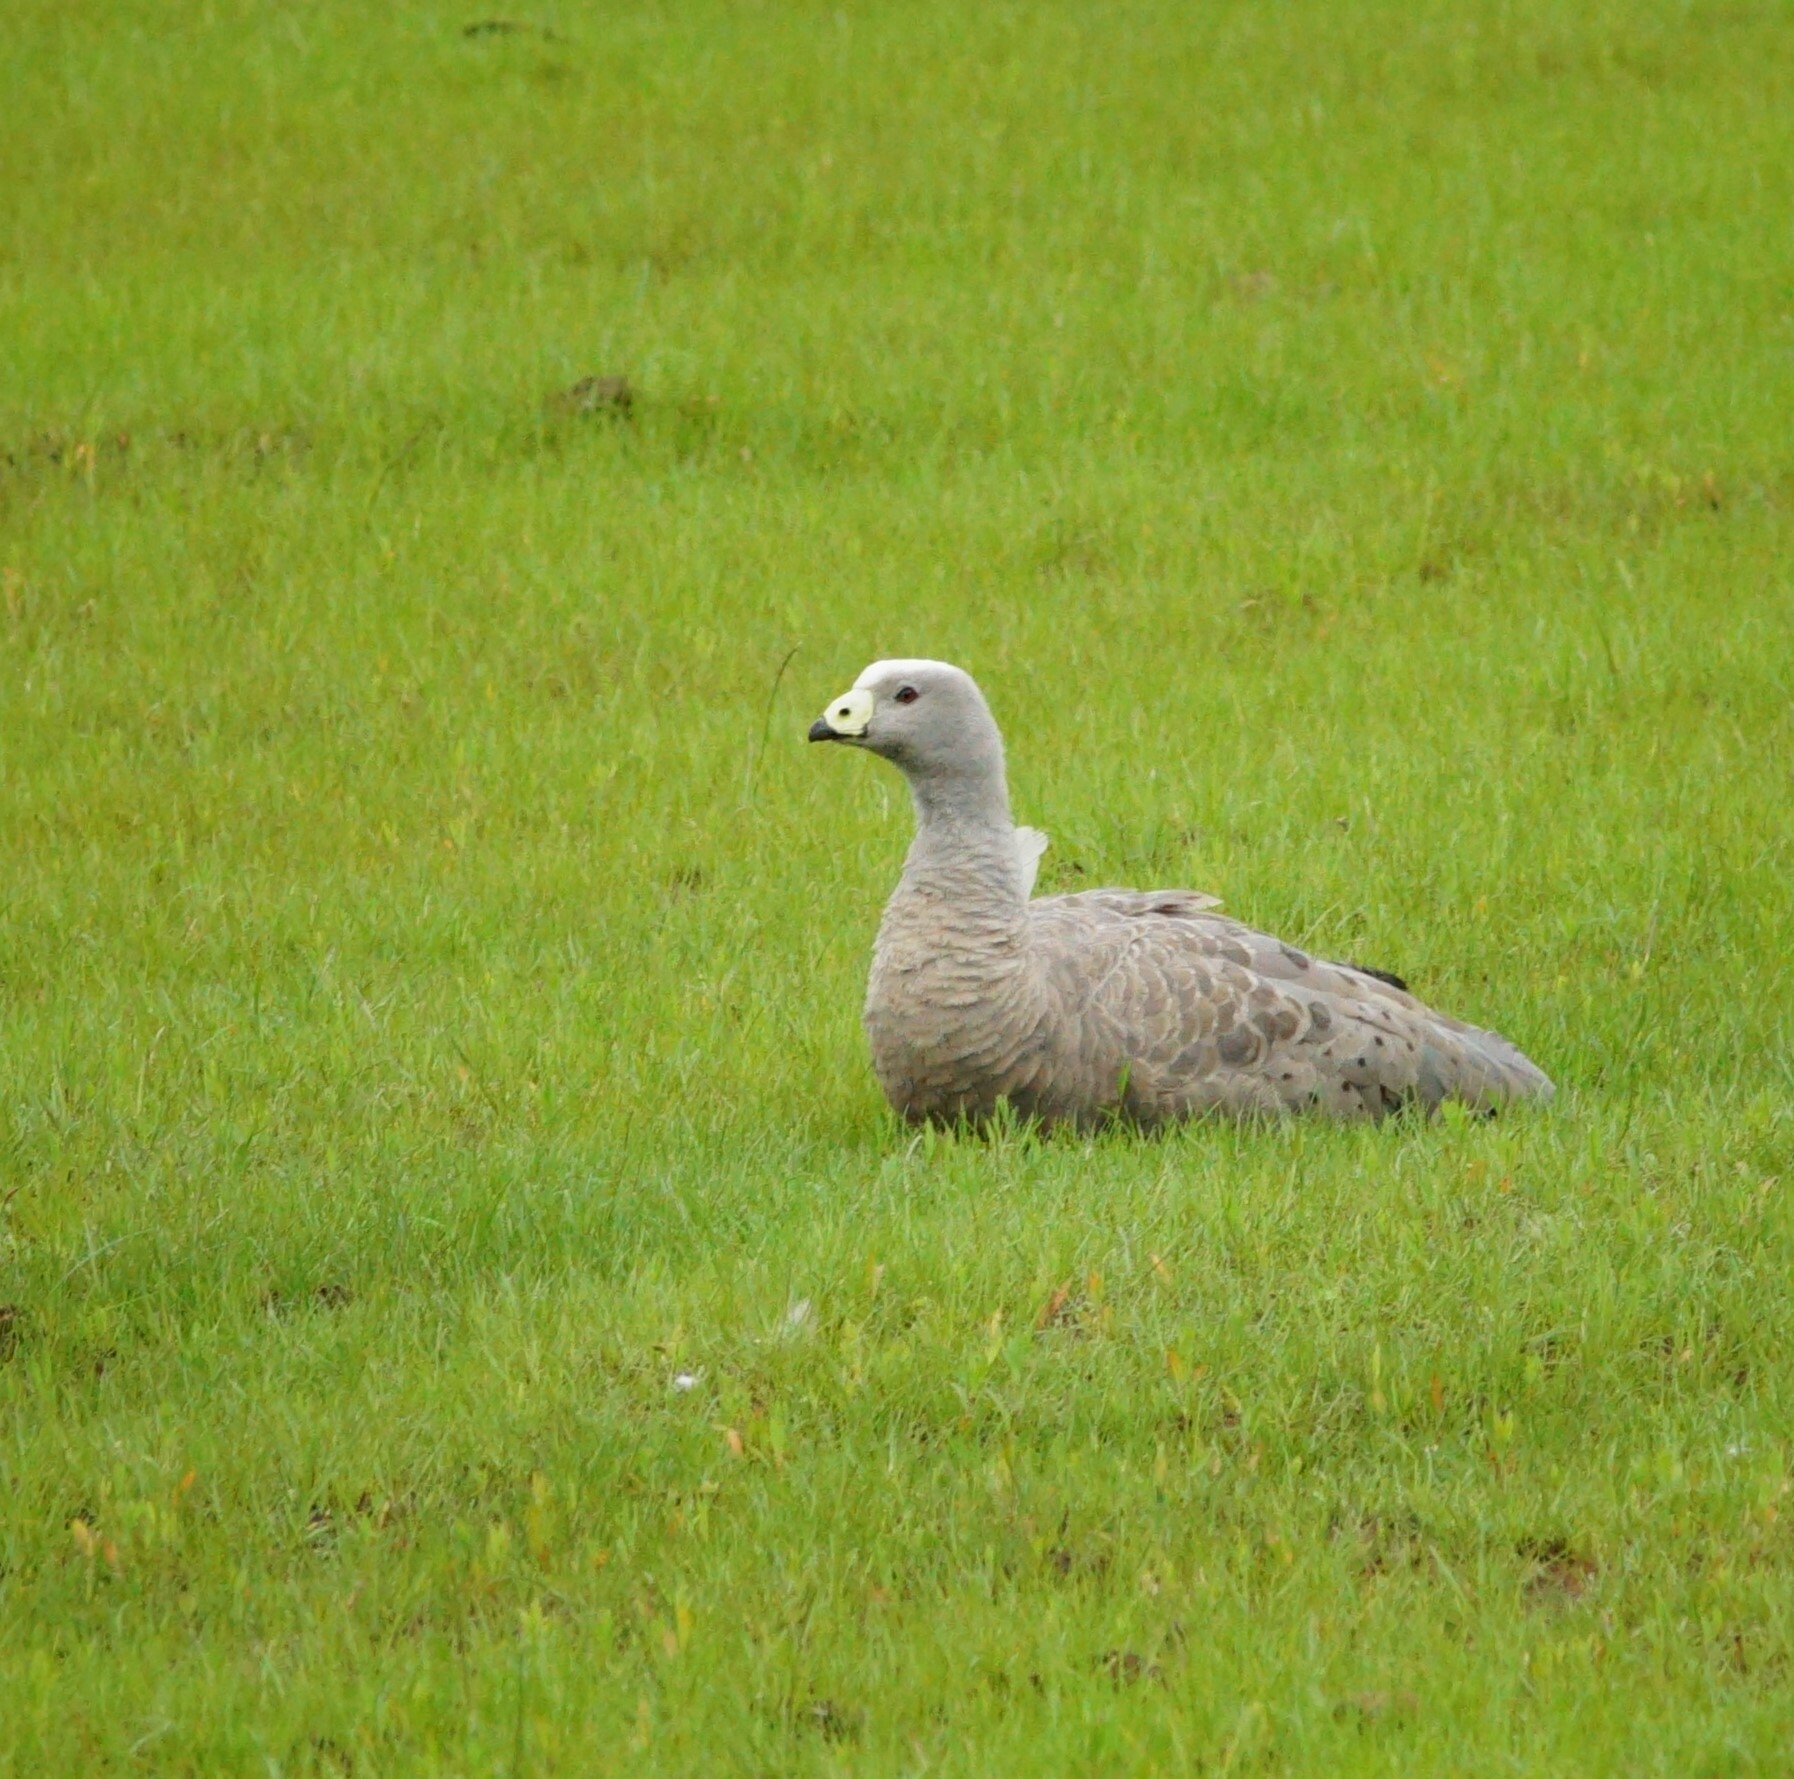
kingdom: Animalia
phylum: Chordata
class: Aves
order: Anseriformes
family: Anatidae
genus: Cereopsis
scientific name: Cereopsis novaehollandiae
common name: Cape barren goose
